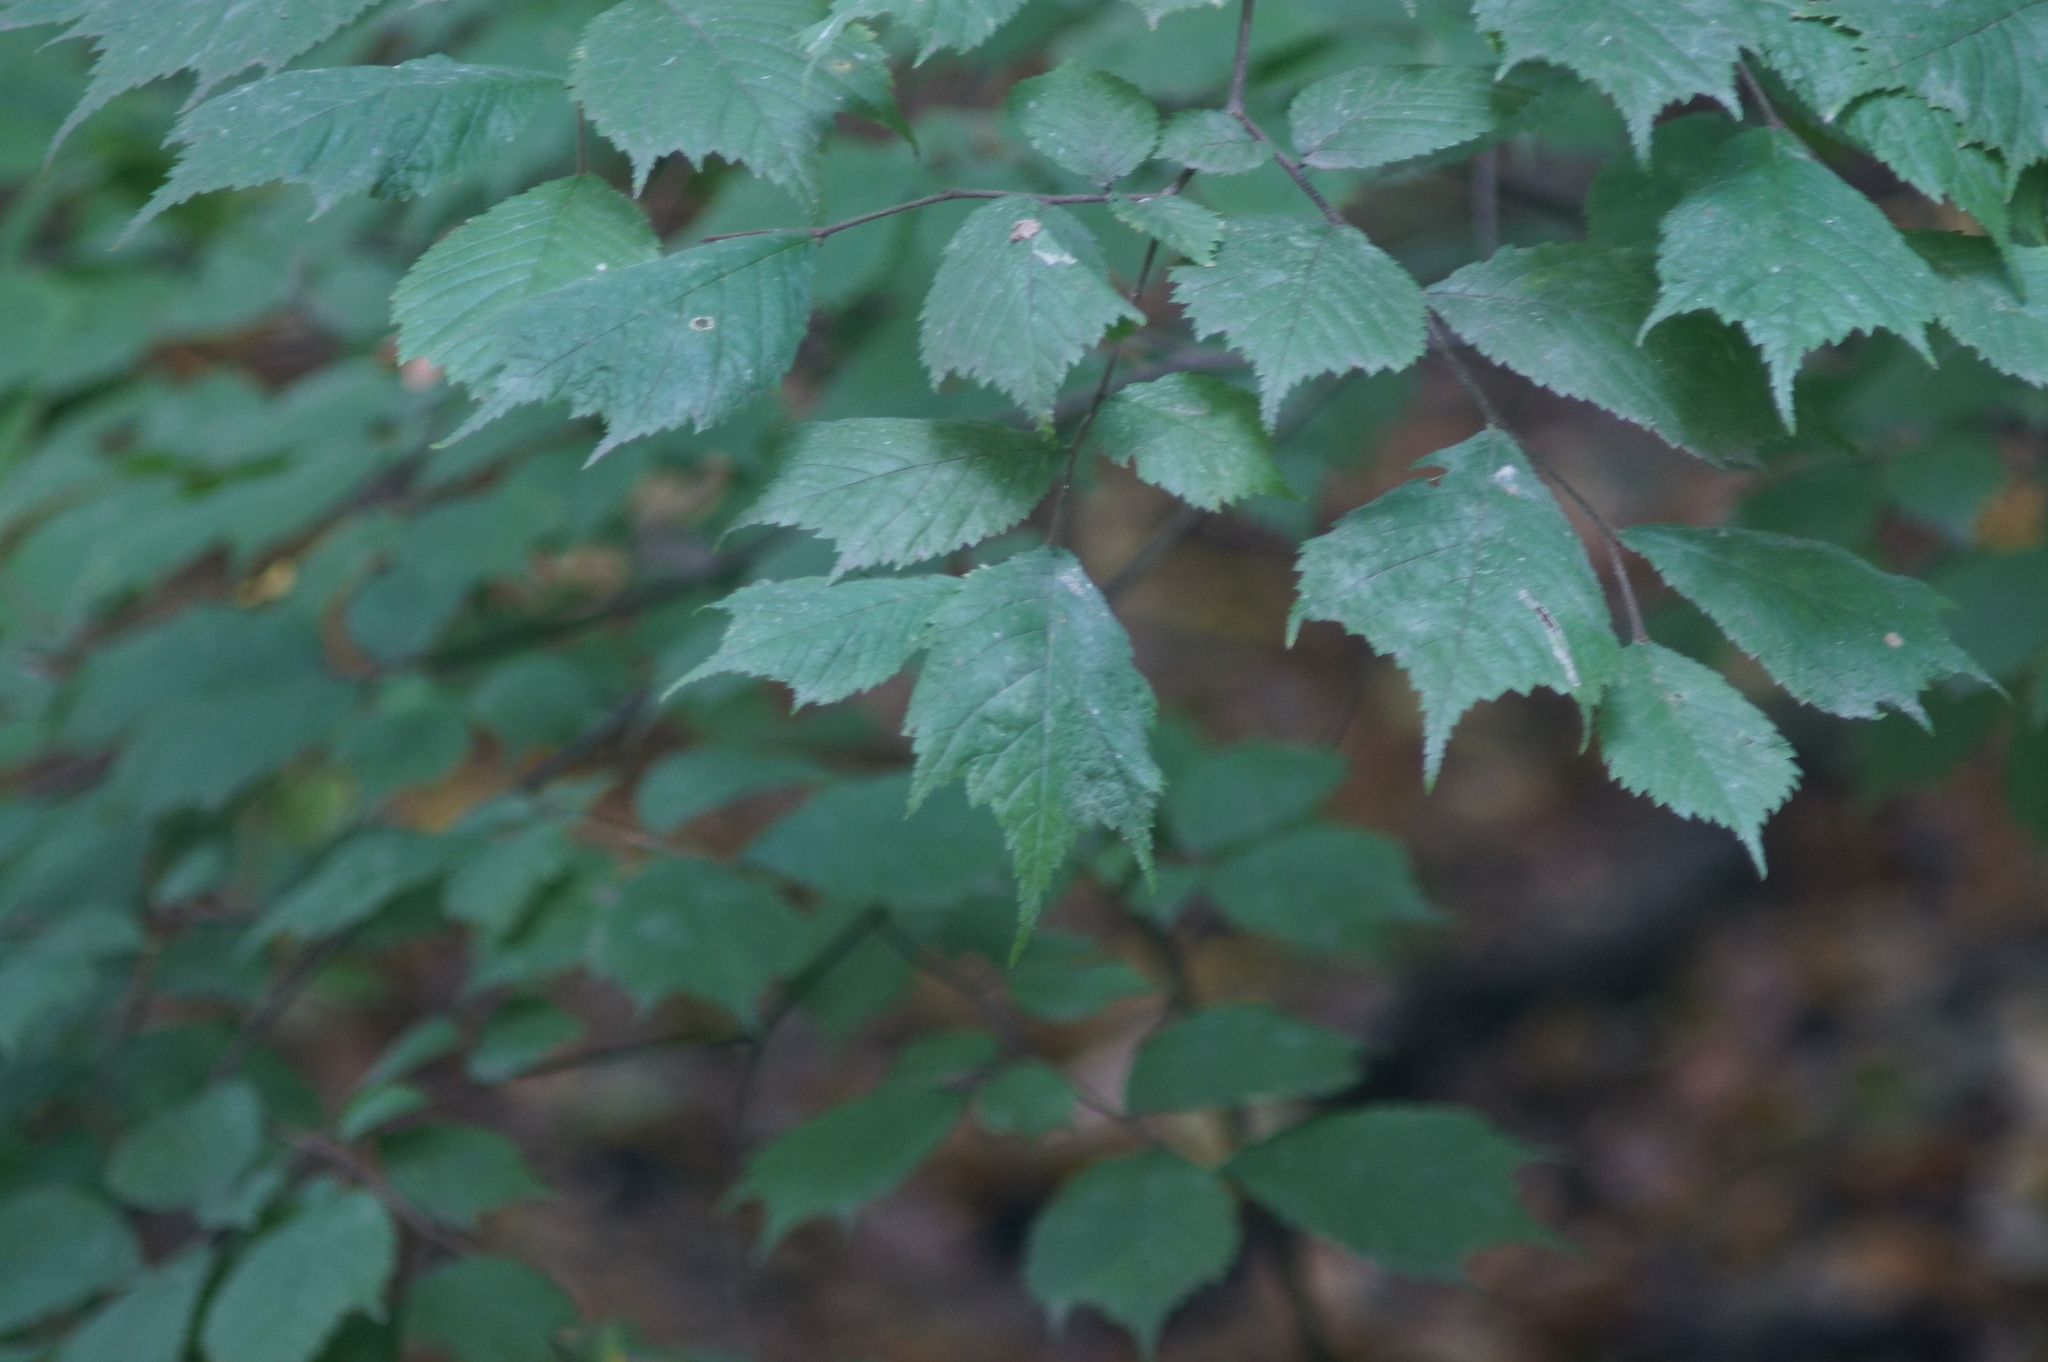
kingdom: Plantae
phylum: Tracheophyta
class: Magnoliopsida
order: Rosales
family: Ulmaceae
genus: Ulmus
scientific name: Ulmus glabra
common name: Wych elm
